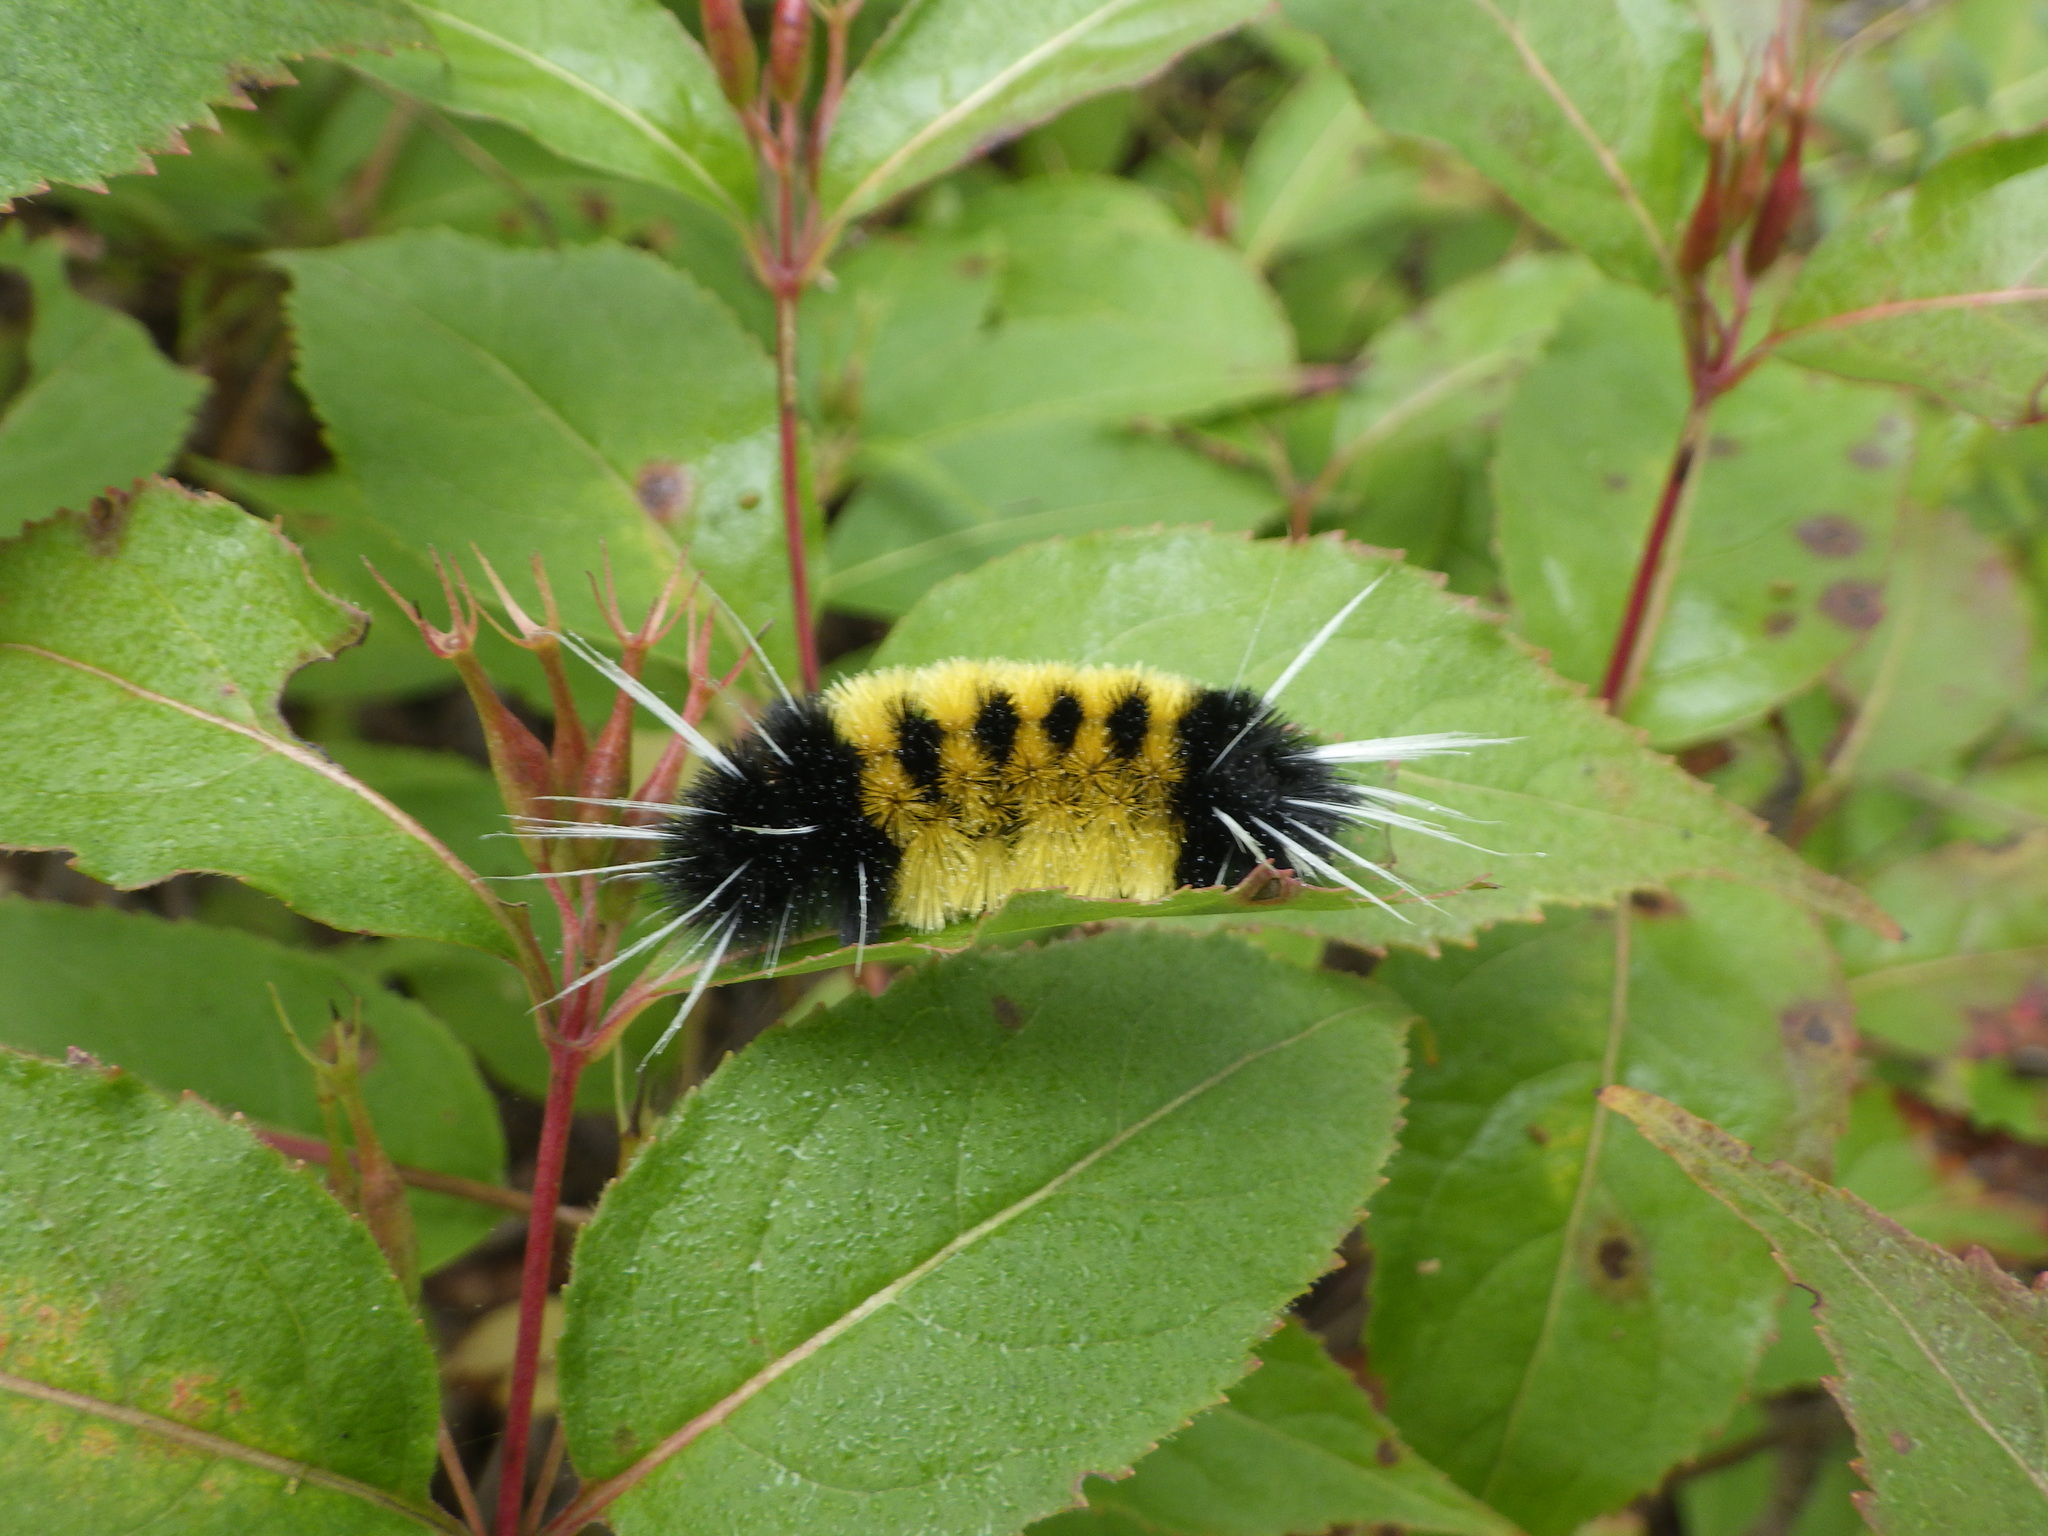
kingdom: Animalia
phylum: Arthropoda
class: Insecta
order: Lepidoptera
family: Erebidae
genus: Lophocampa
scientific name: Lophocampa maculata
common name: Spotted tussock moth
